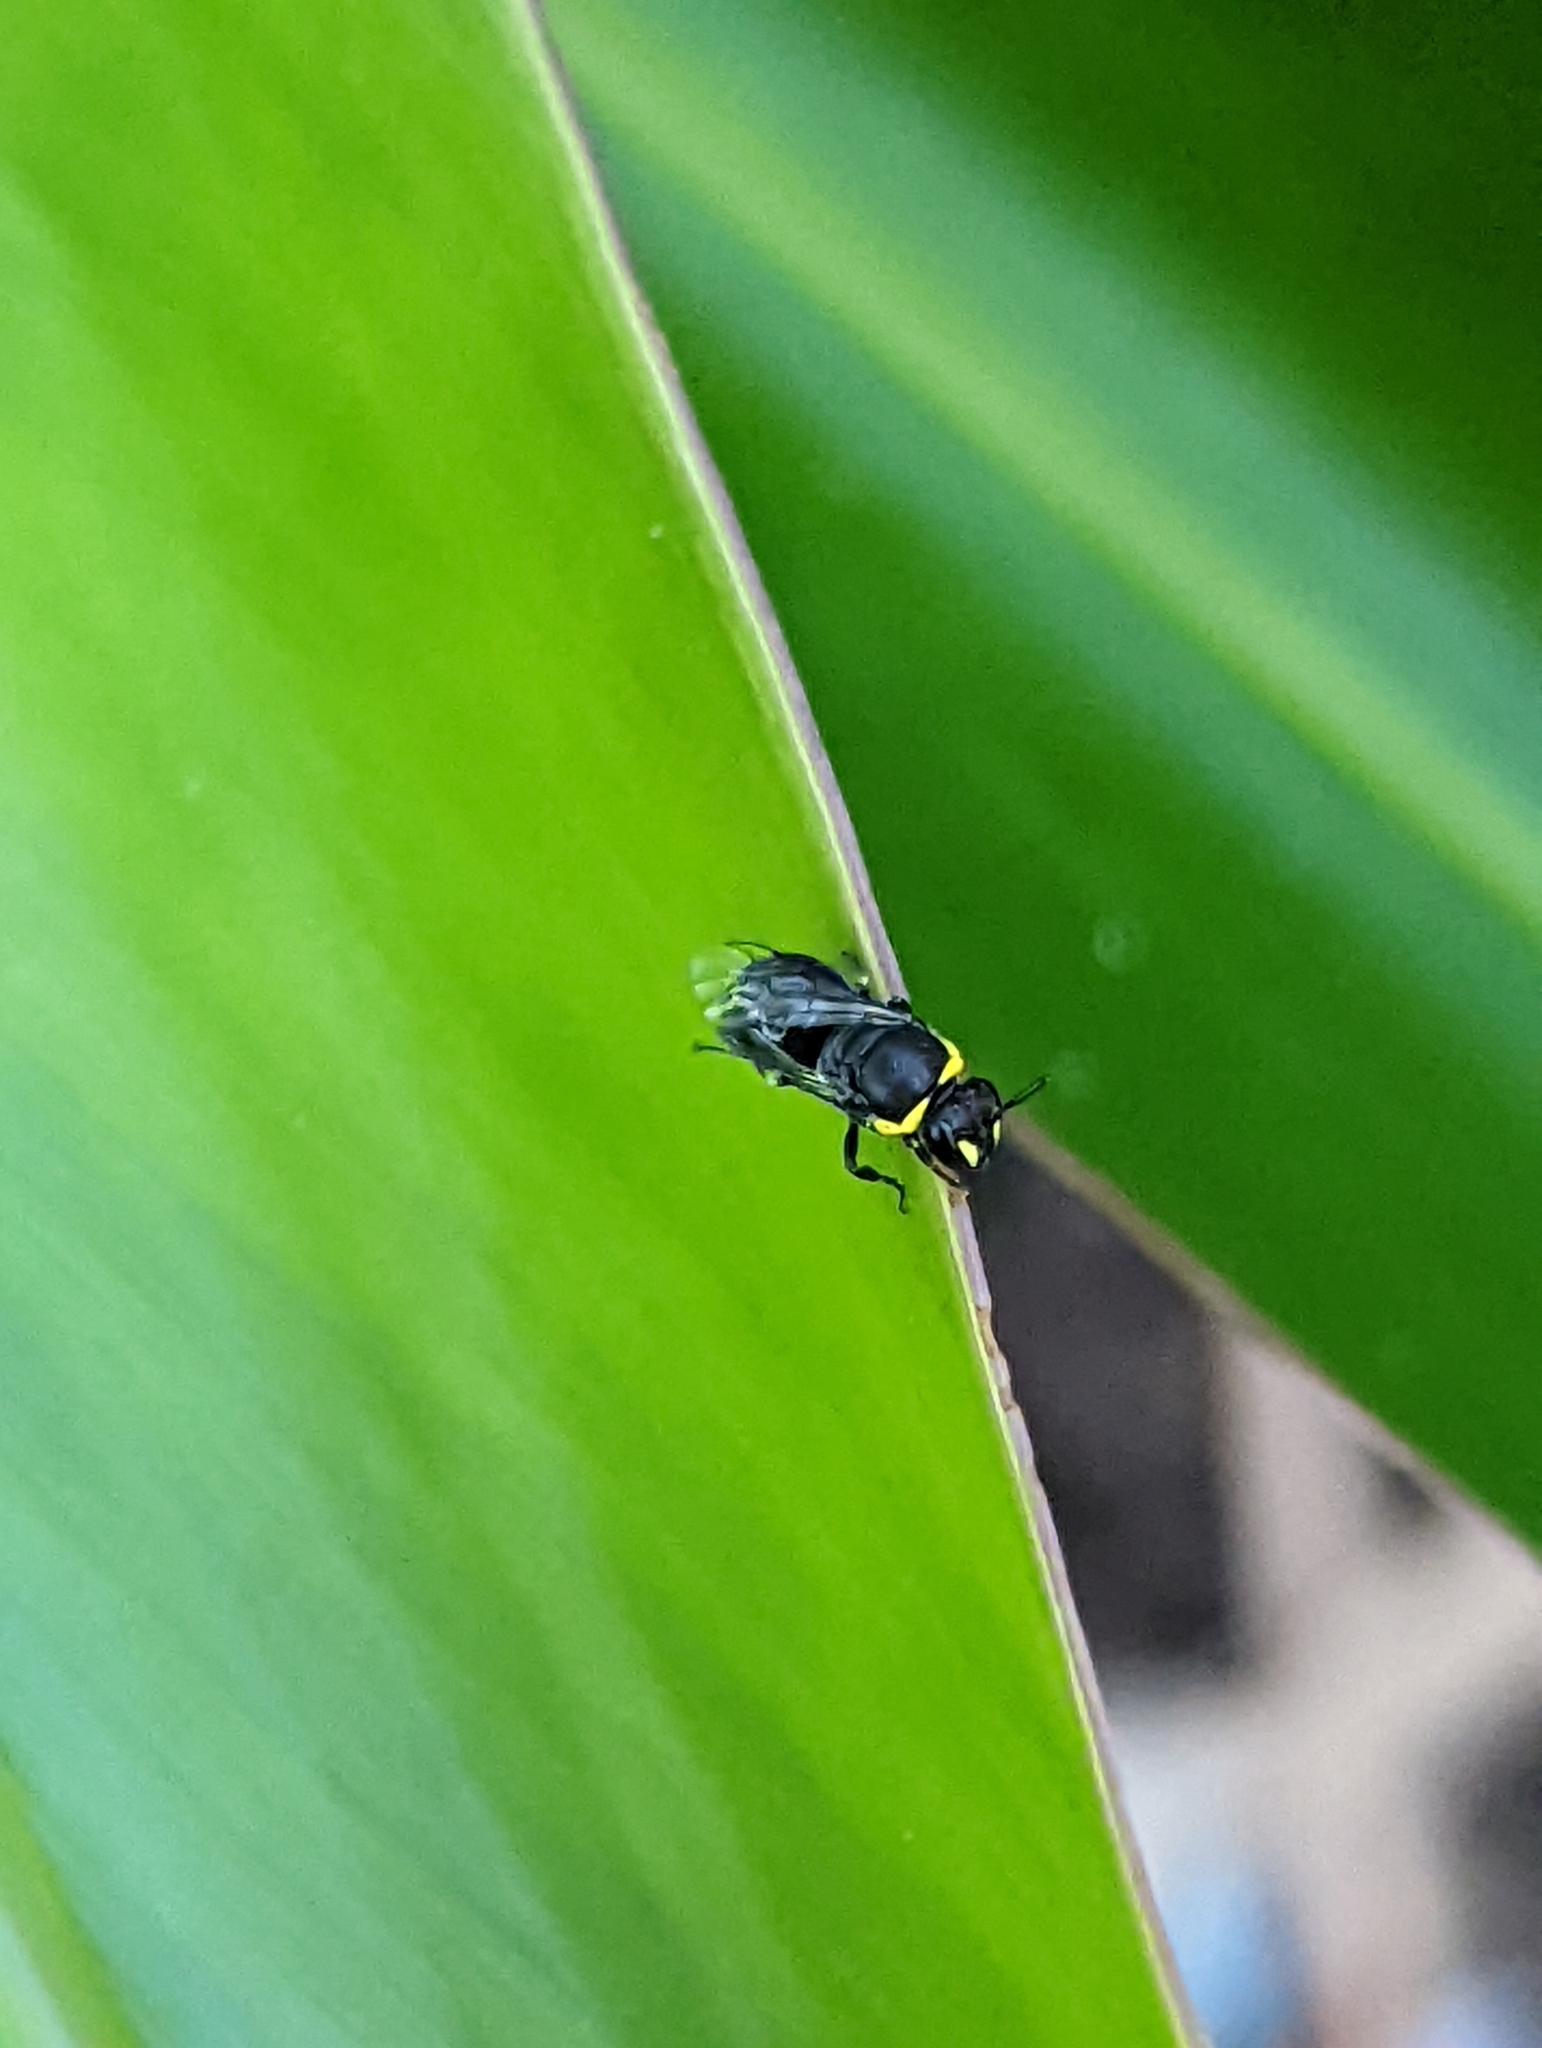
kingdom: Animalia
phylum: Arthropoda
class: Insecta
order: Hymenoptera
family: Colletidae
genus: Hylaeus
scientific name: Hylaeus amiculiformis
